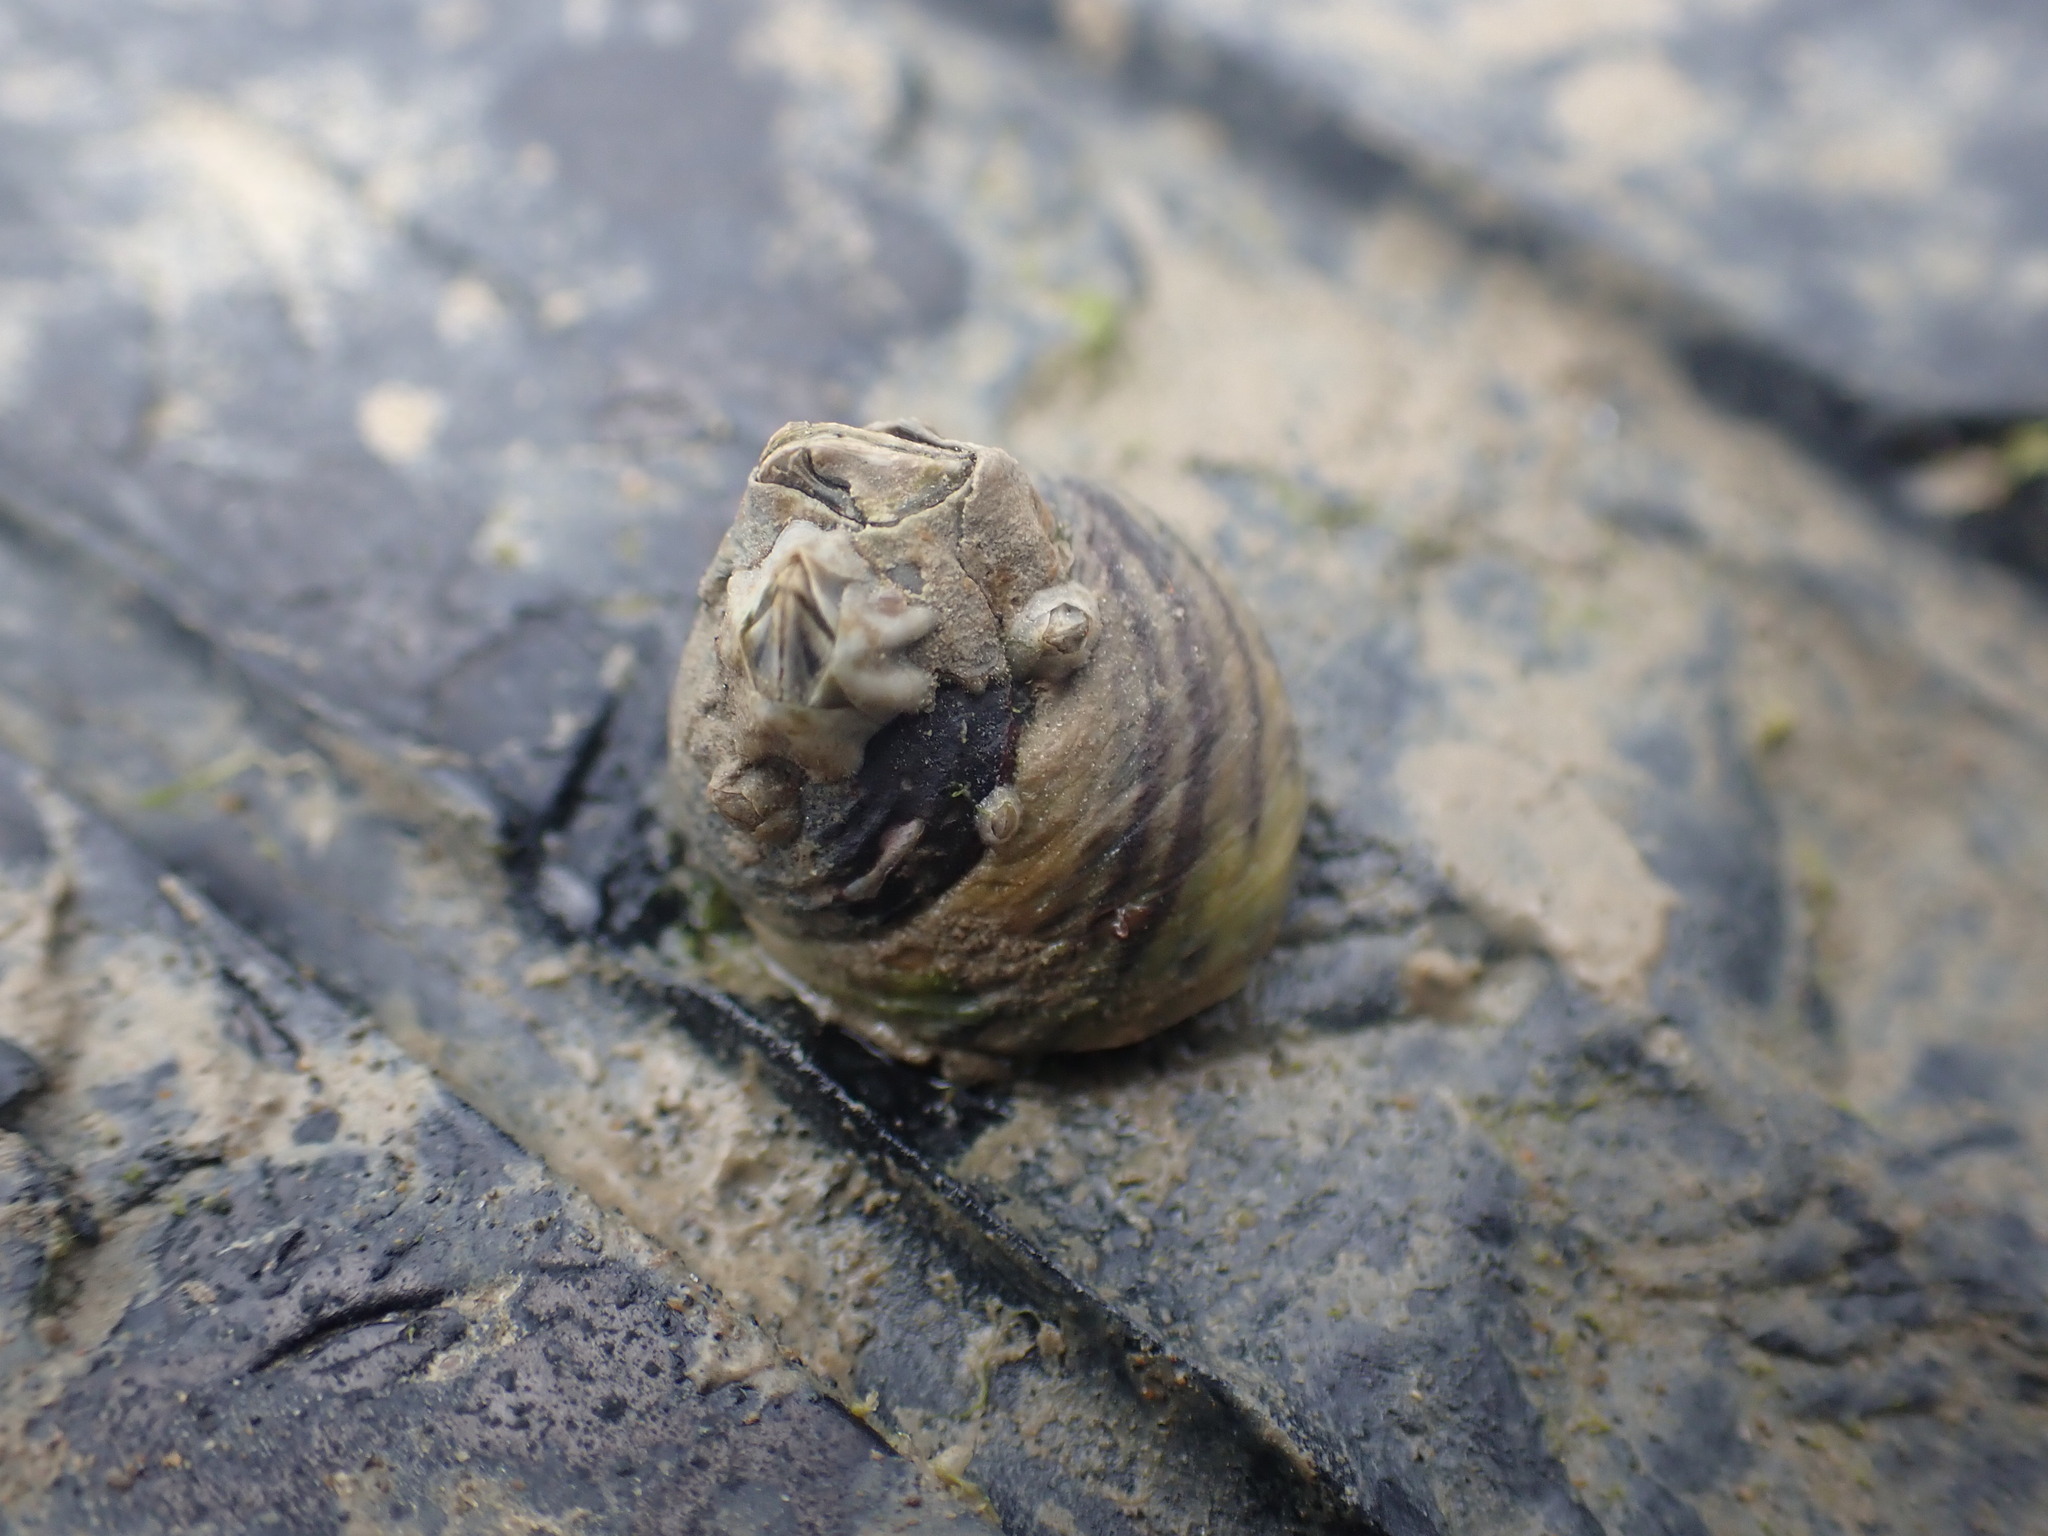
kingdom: Animalia
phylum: Mollusca
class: Gastropoda
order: Trochida
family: Trochidae
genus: Diloma
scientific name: Diloma subrostratum
